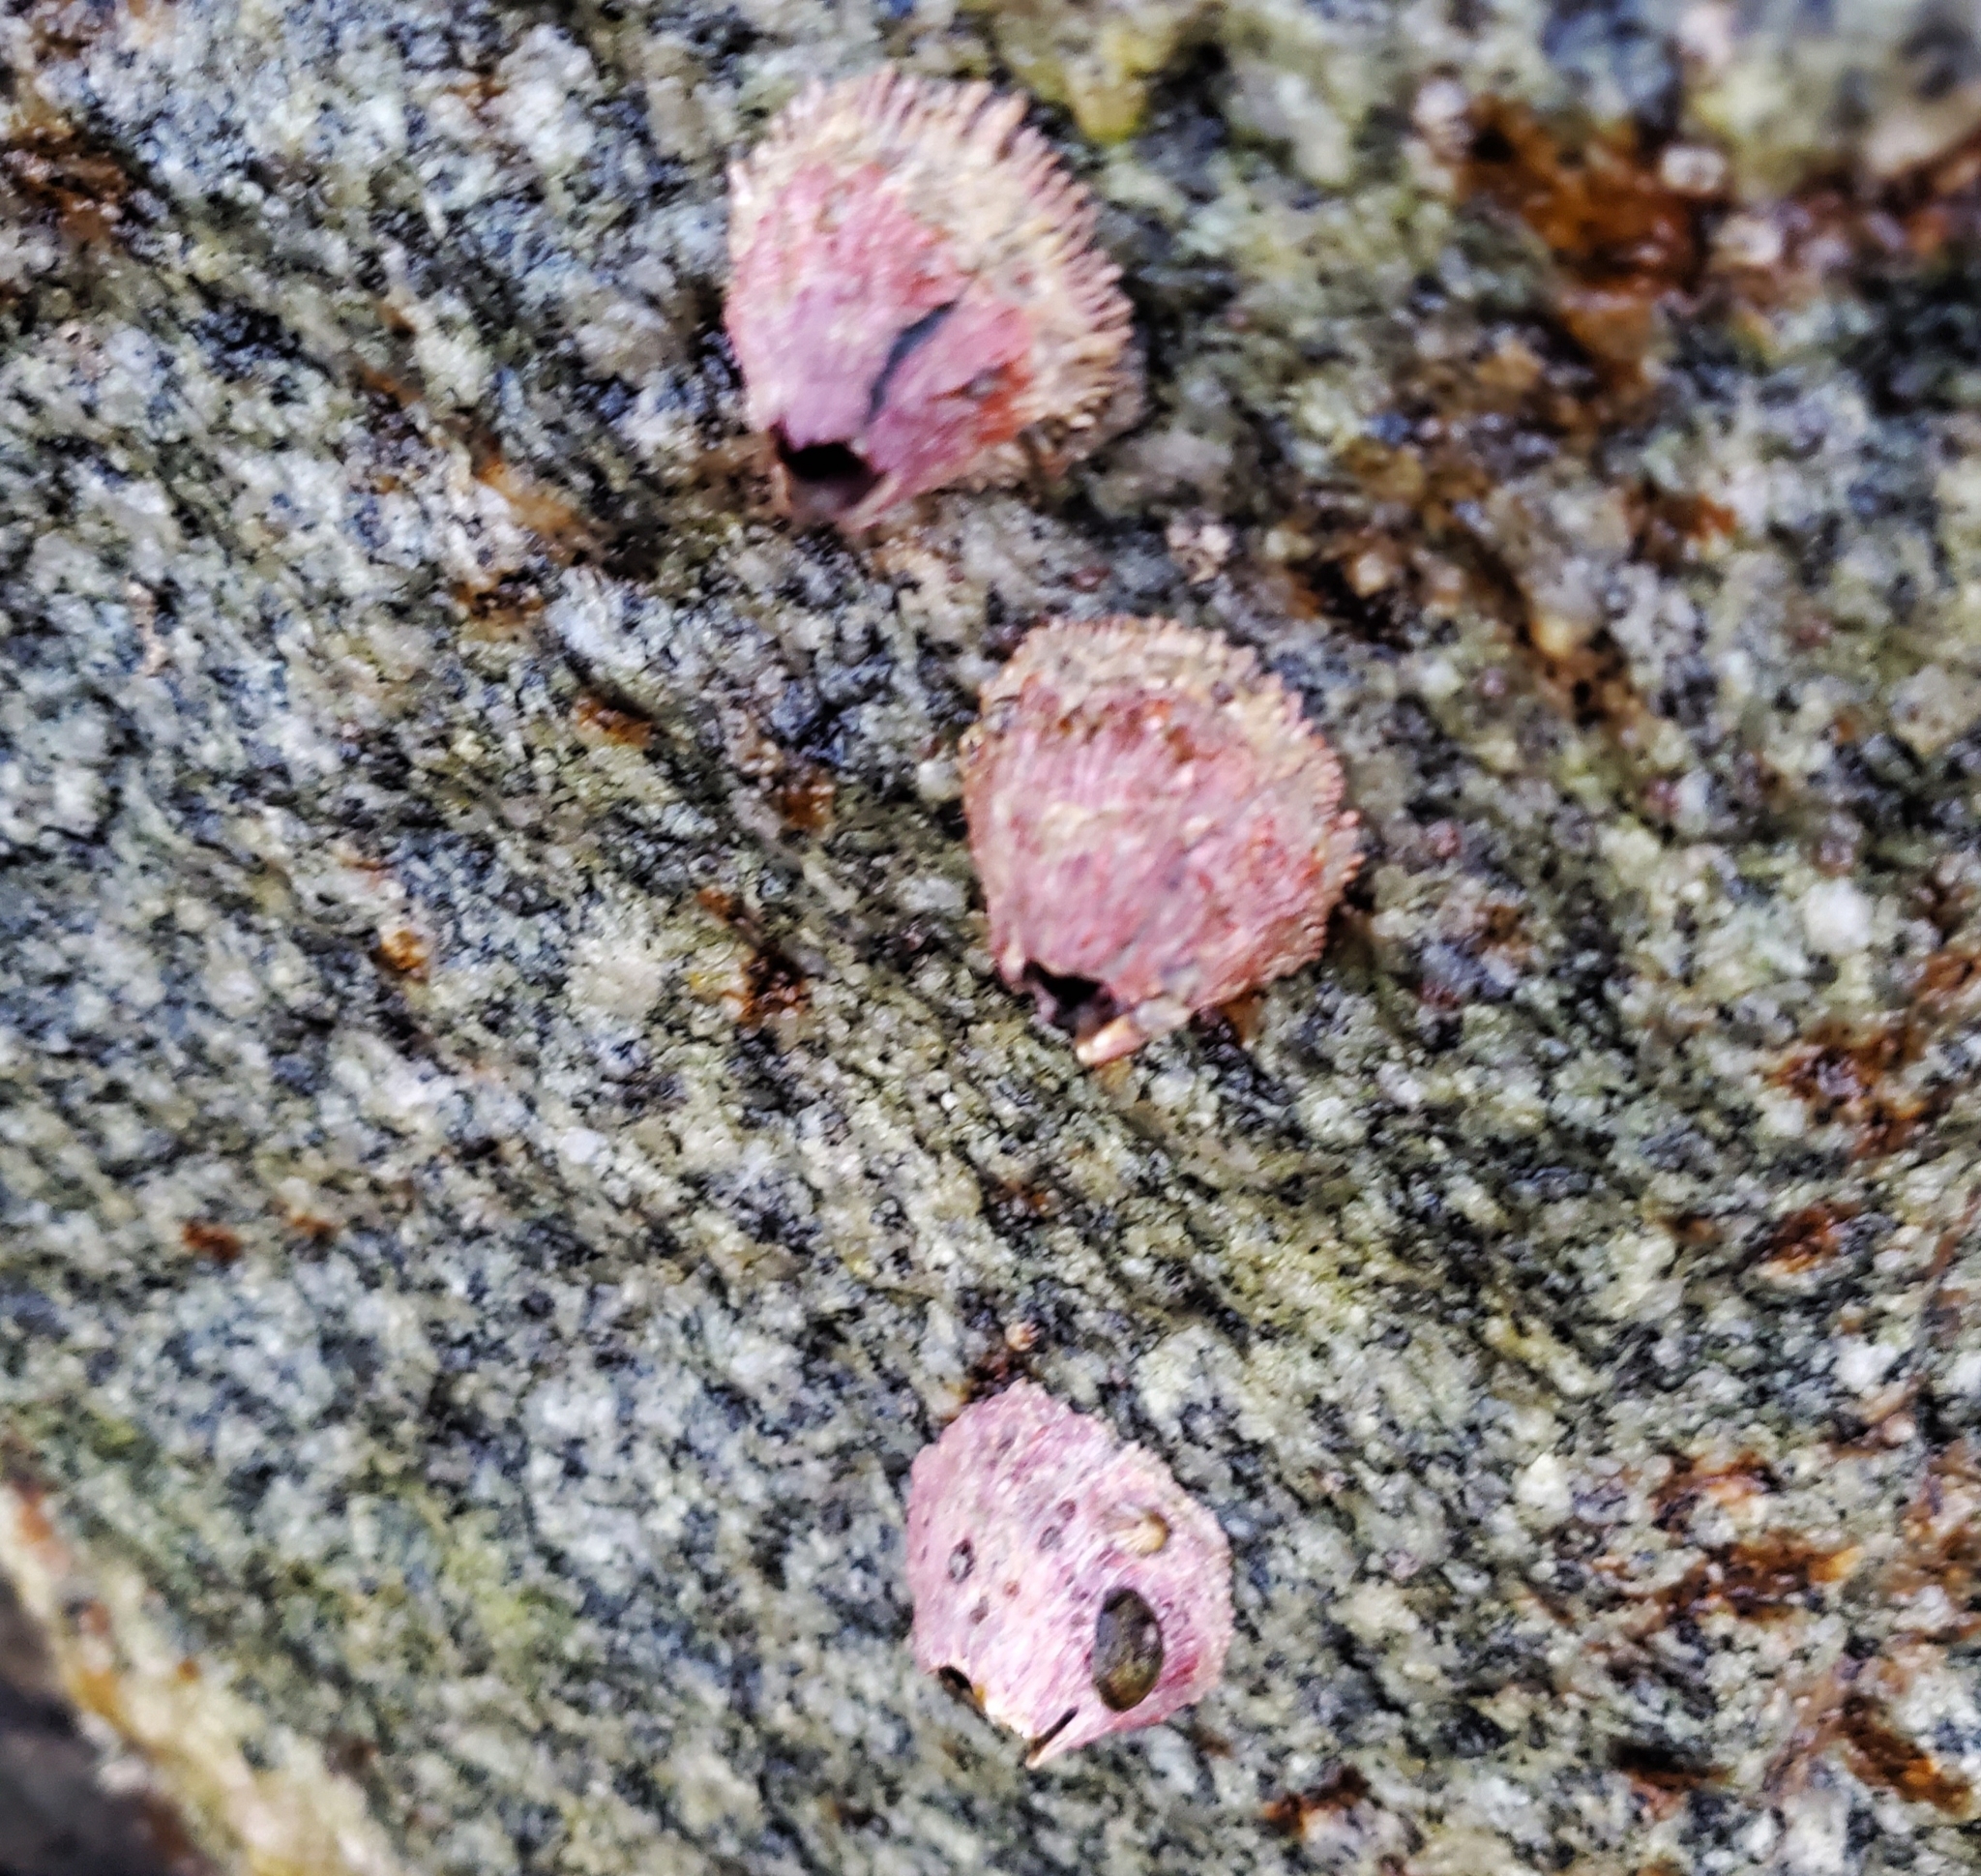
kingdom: Animalia
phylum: Arthropoda
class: Maxillopoda
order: Sessilia
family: Tetraclitidae
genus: Tetraclita
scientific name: Tetraclita rubescens
